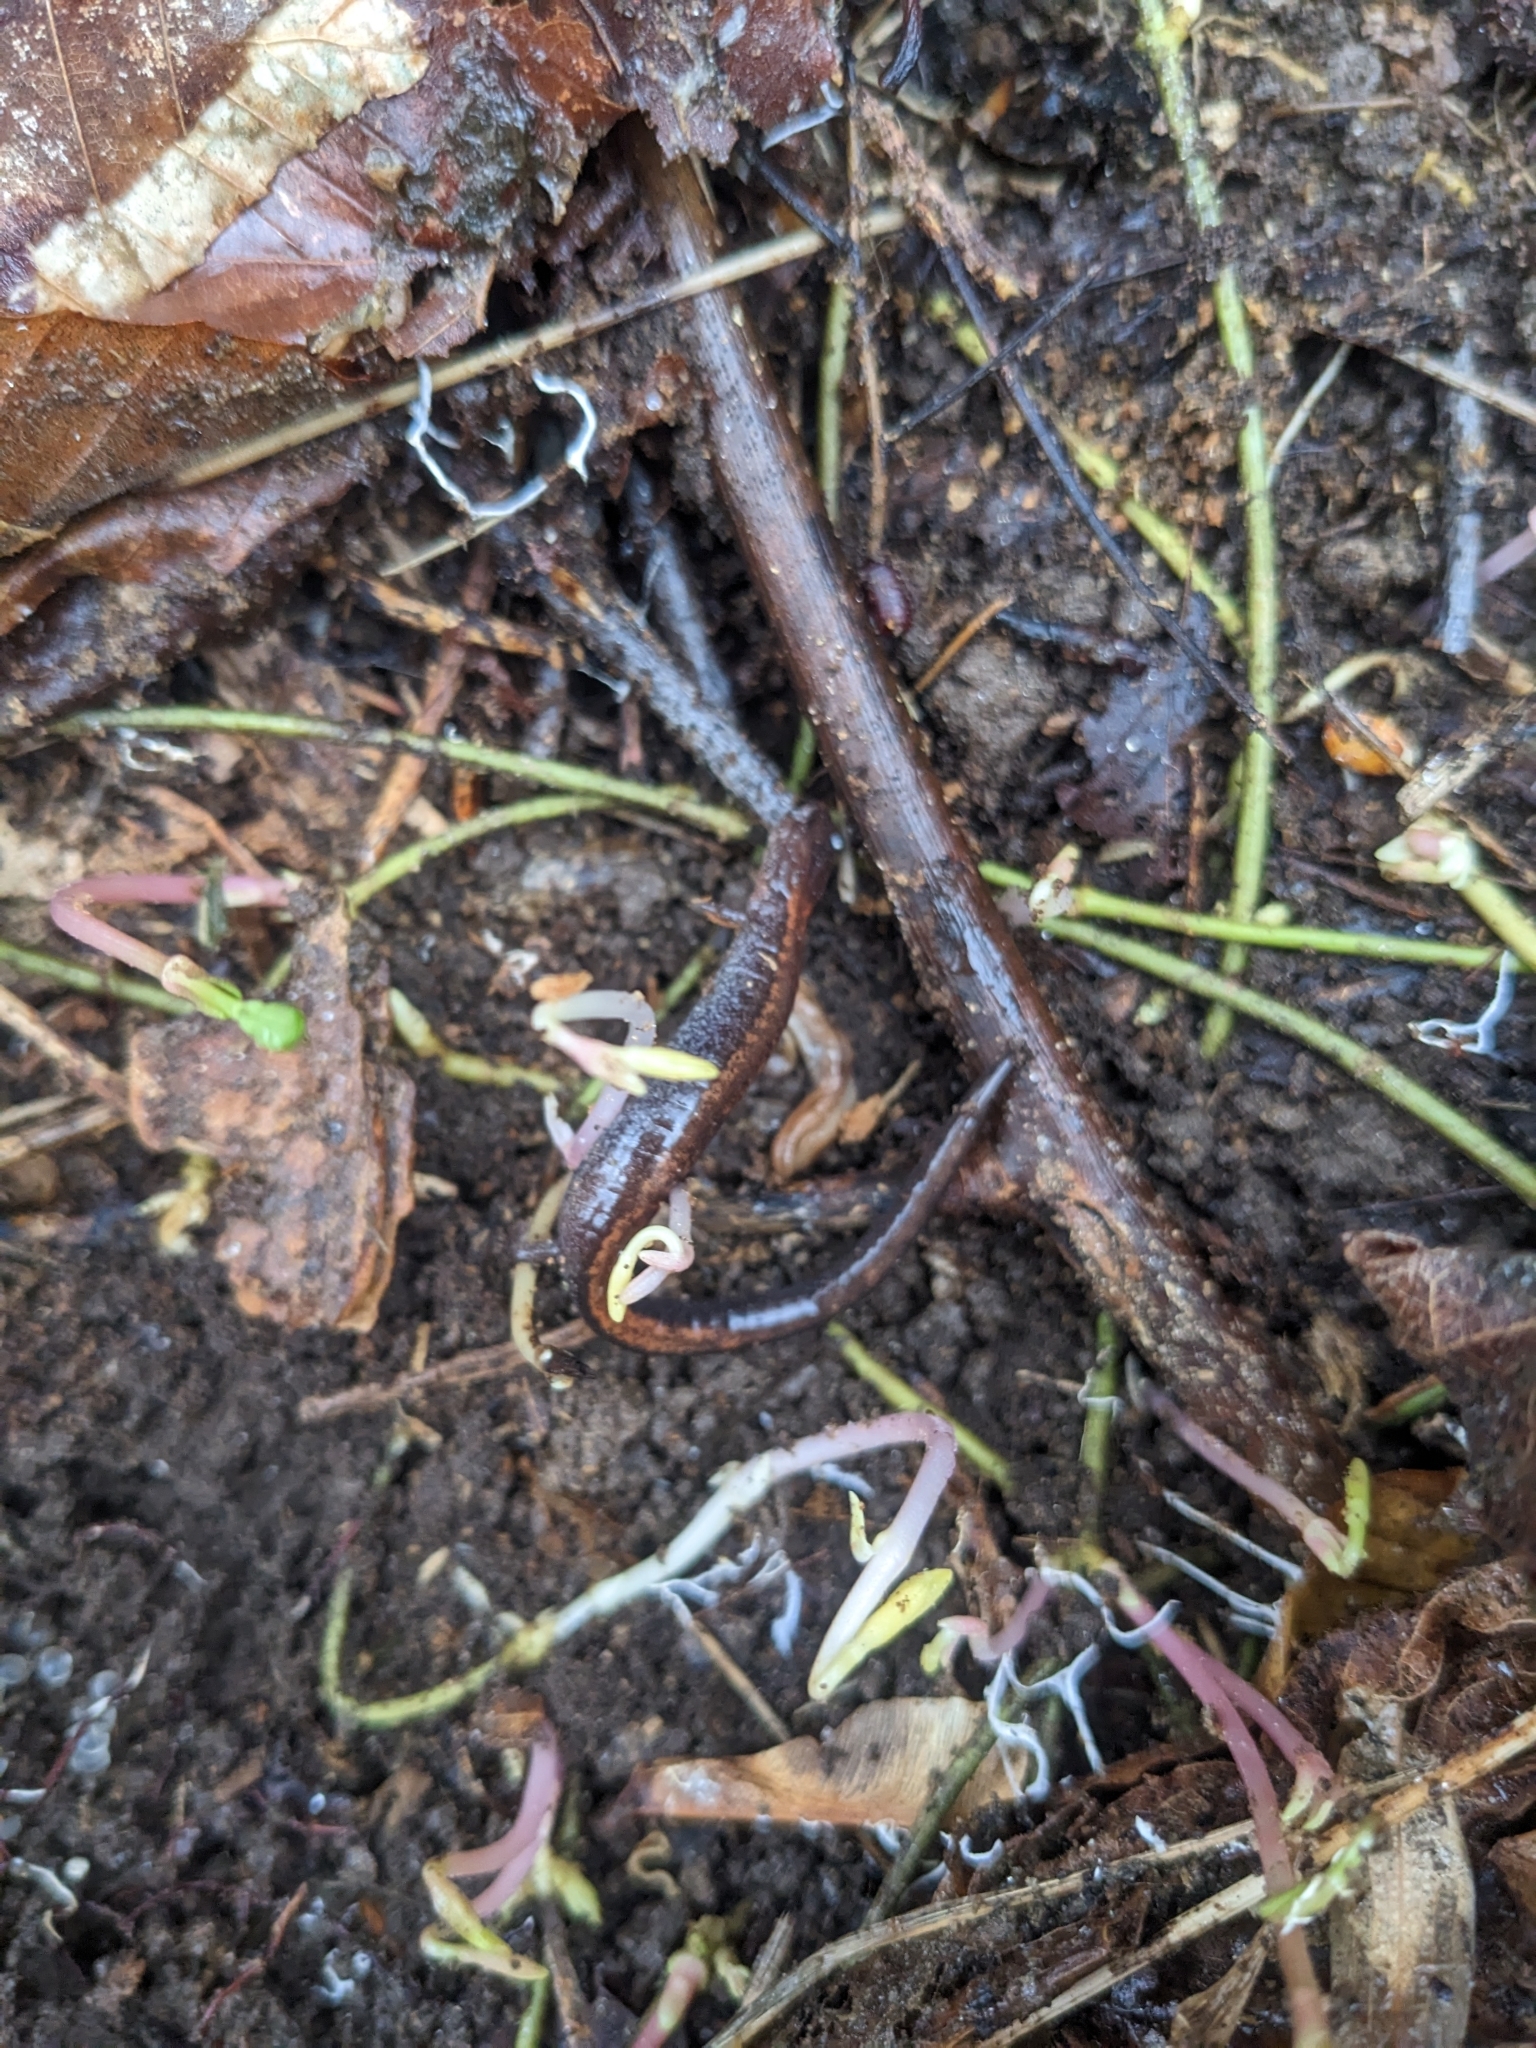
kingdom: Animalia
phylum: Chordata
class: Amphibia
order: Caudata
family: Plethodontidae
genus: Plethodon
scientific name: Plethodon cinereus
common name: Redback salamander
